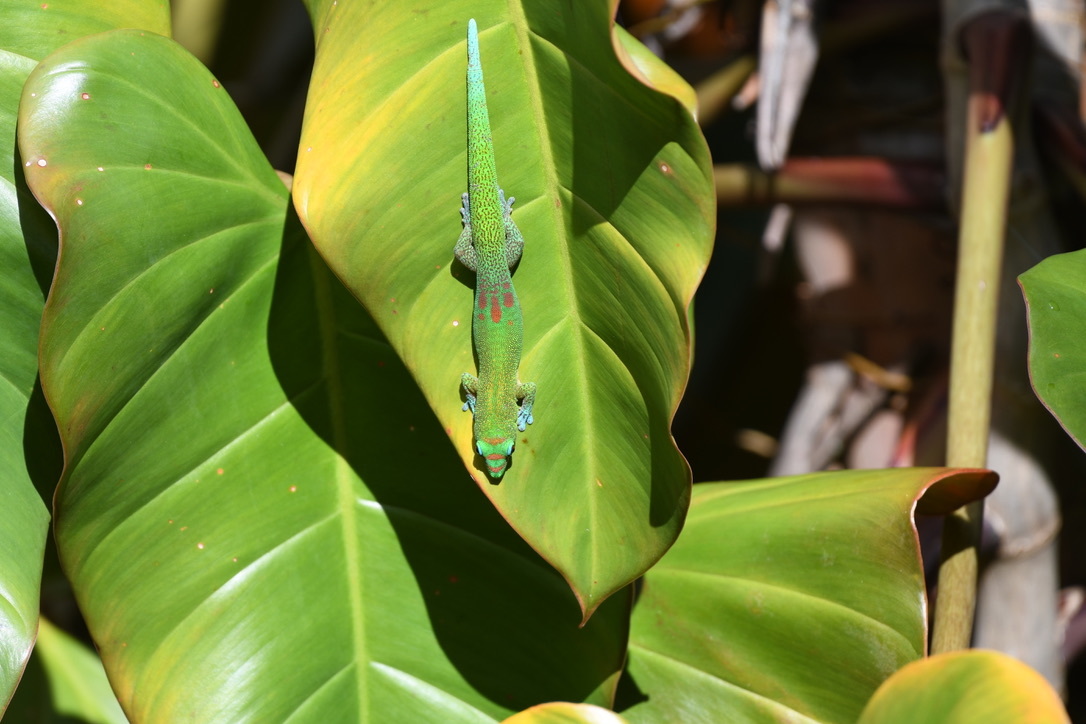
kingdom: Animalia
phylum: Chordata
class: Squamata
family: Gekkonidae
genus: Phelsuma
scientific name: Phelsuma laticauda
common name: Gold dust day gecko
